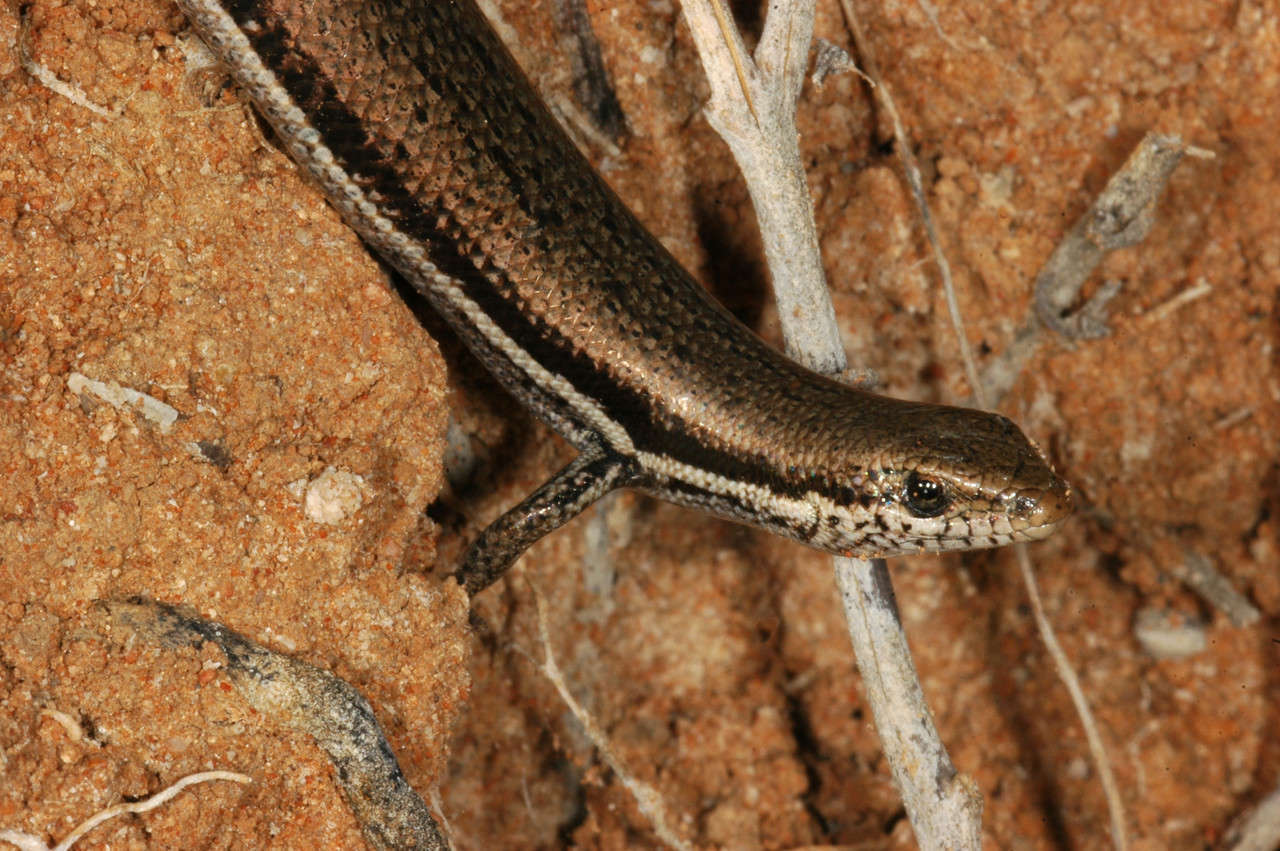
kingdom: Animalia
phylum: Chordata
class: Squamata
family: Scincidae
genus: Morethia
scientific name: Morethia boulengeri
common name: South-eastern morethia skink
